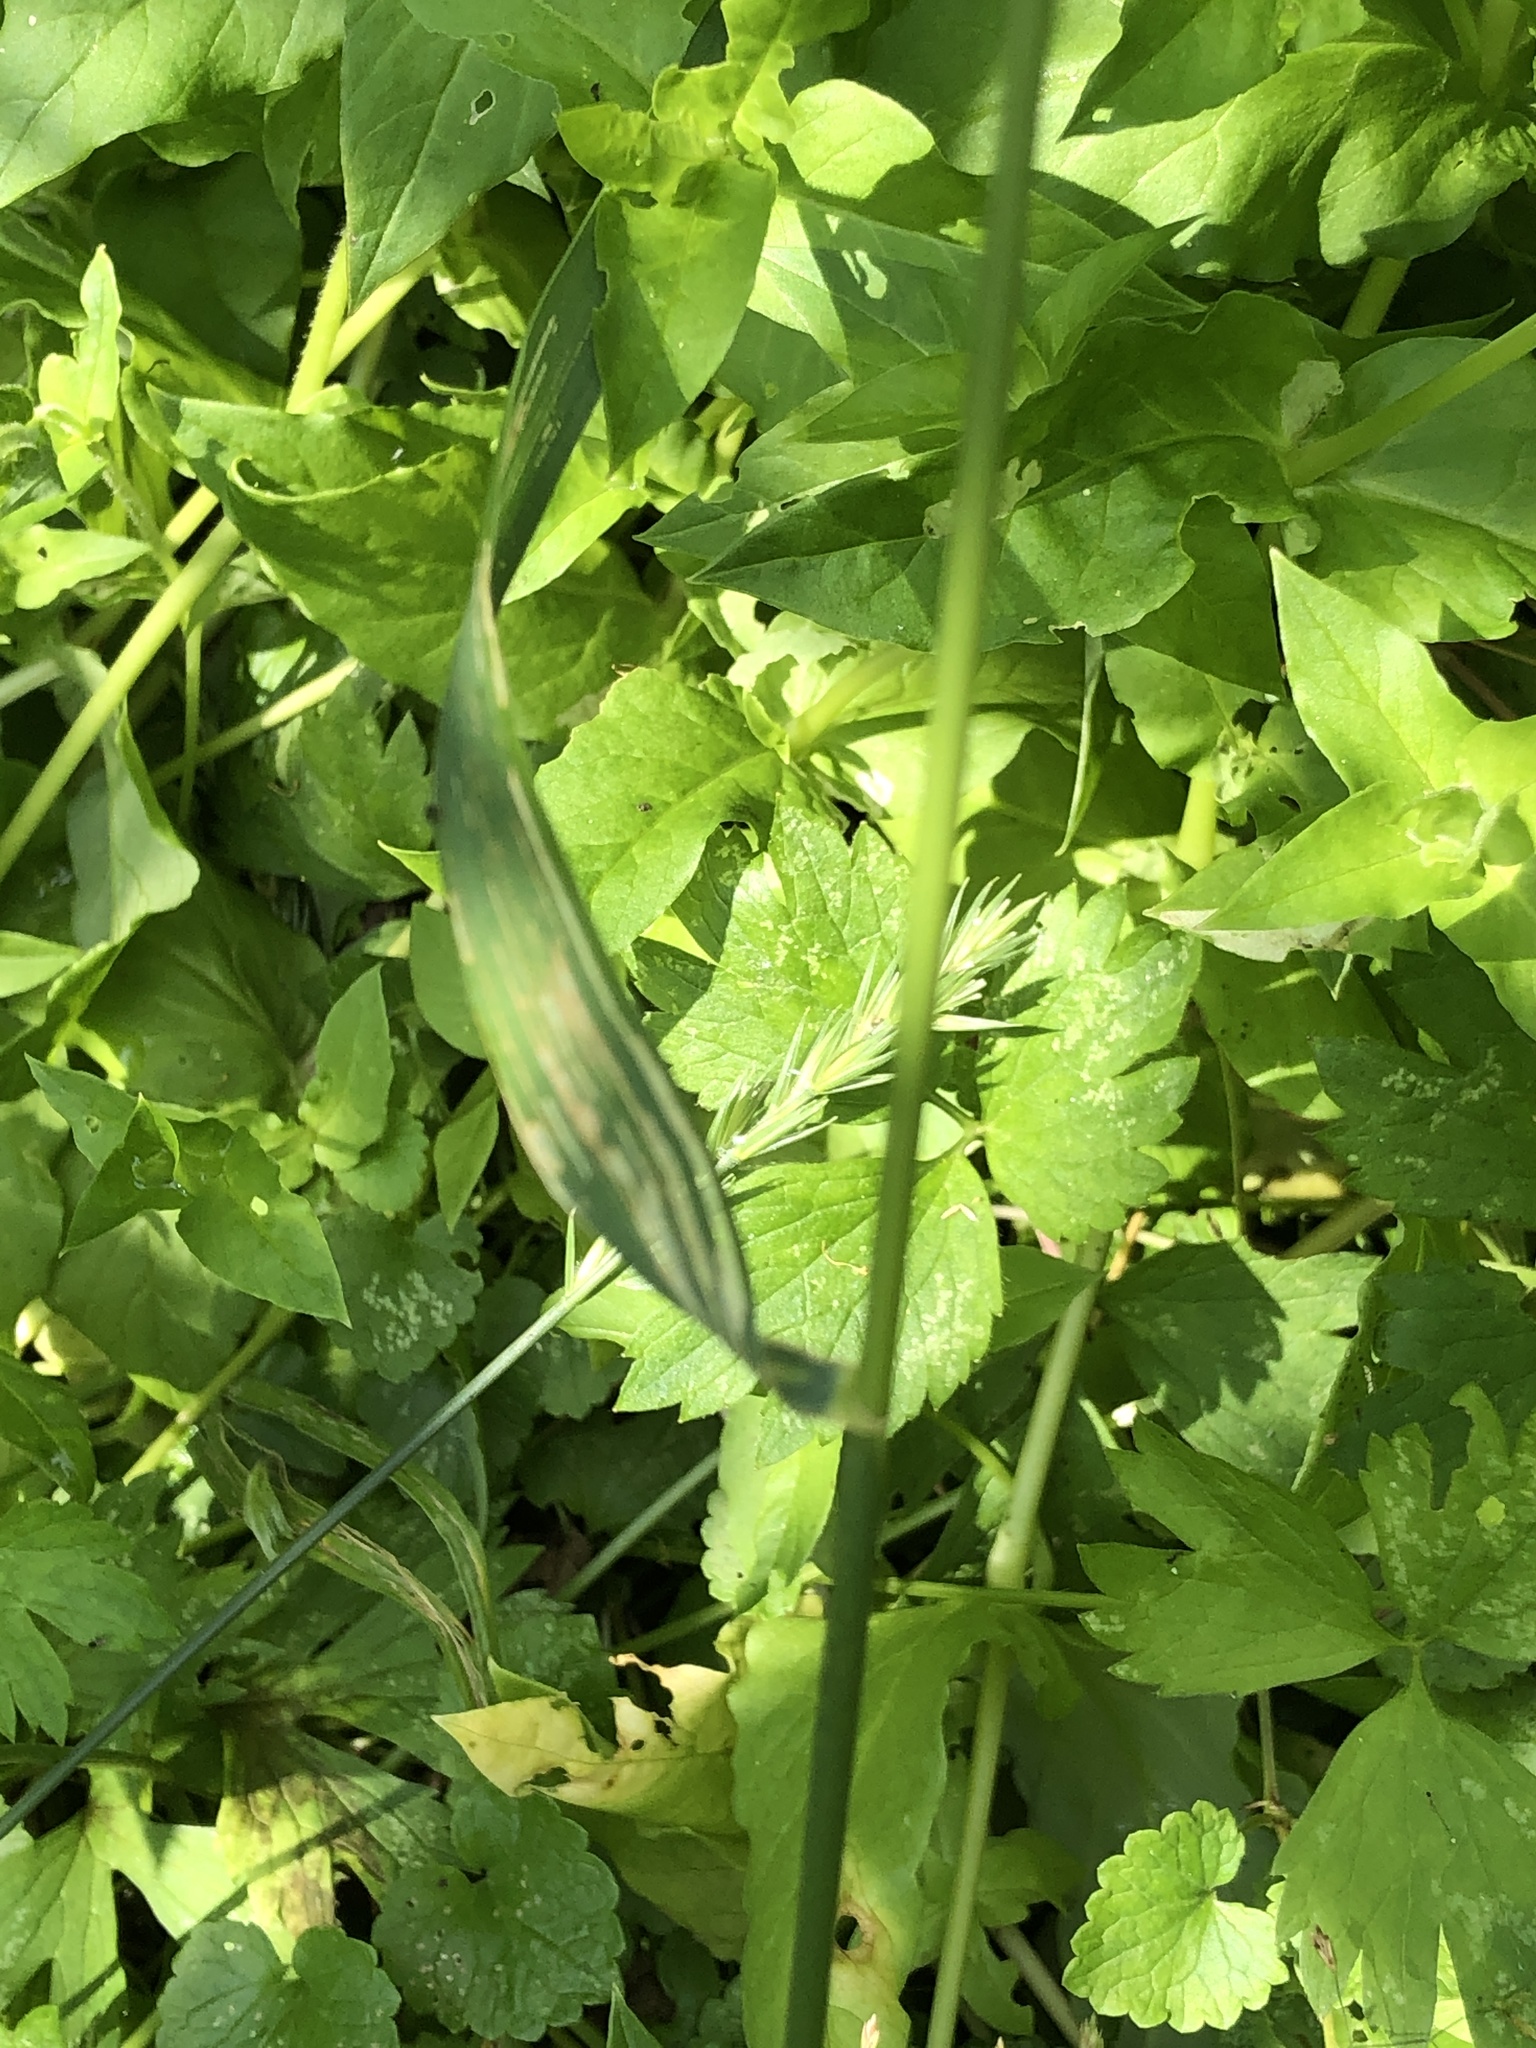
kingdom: Plantae
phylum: Tracheophyta
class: Liliopsida
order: Poales
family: Poaceae
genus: Elymus
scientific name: Elymus repens
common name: Quackgrass
